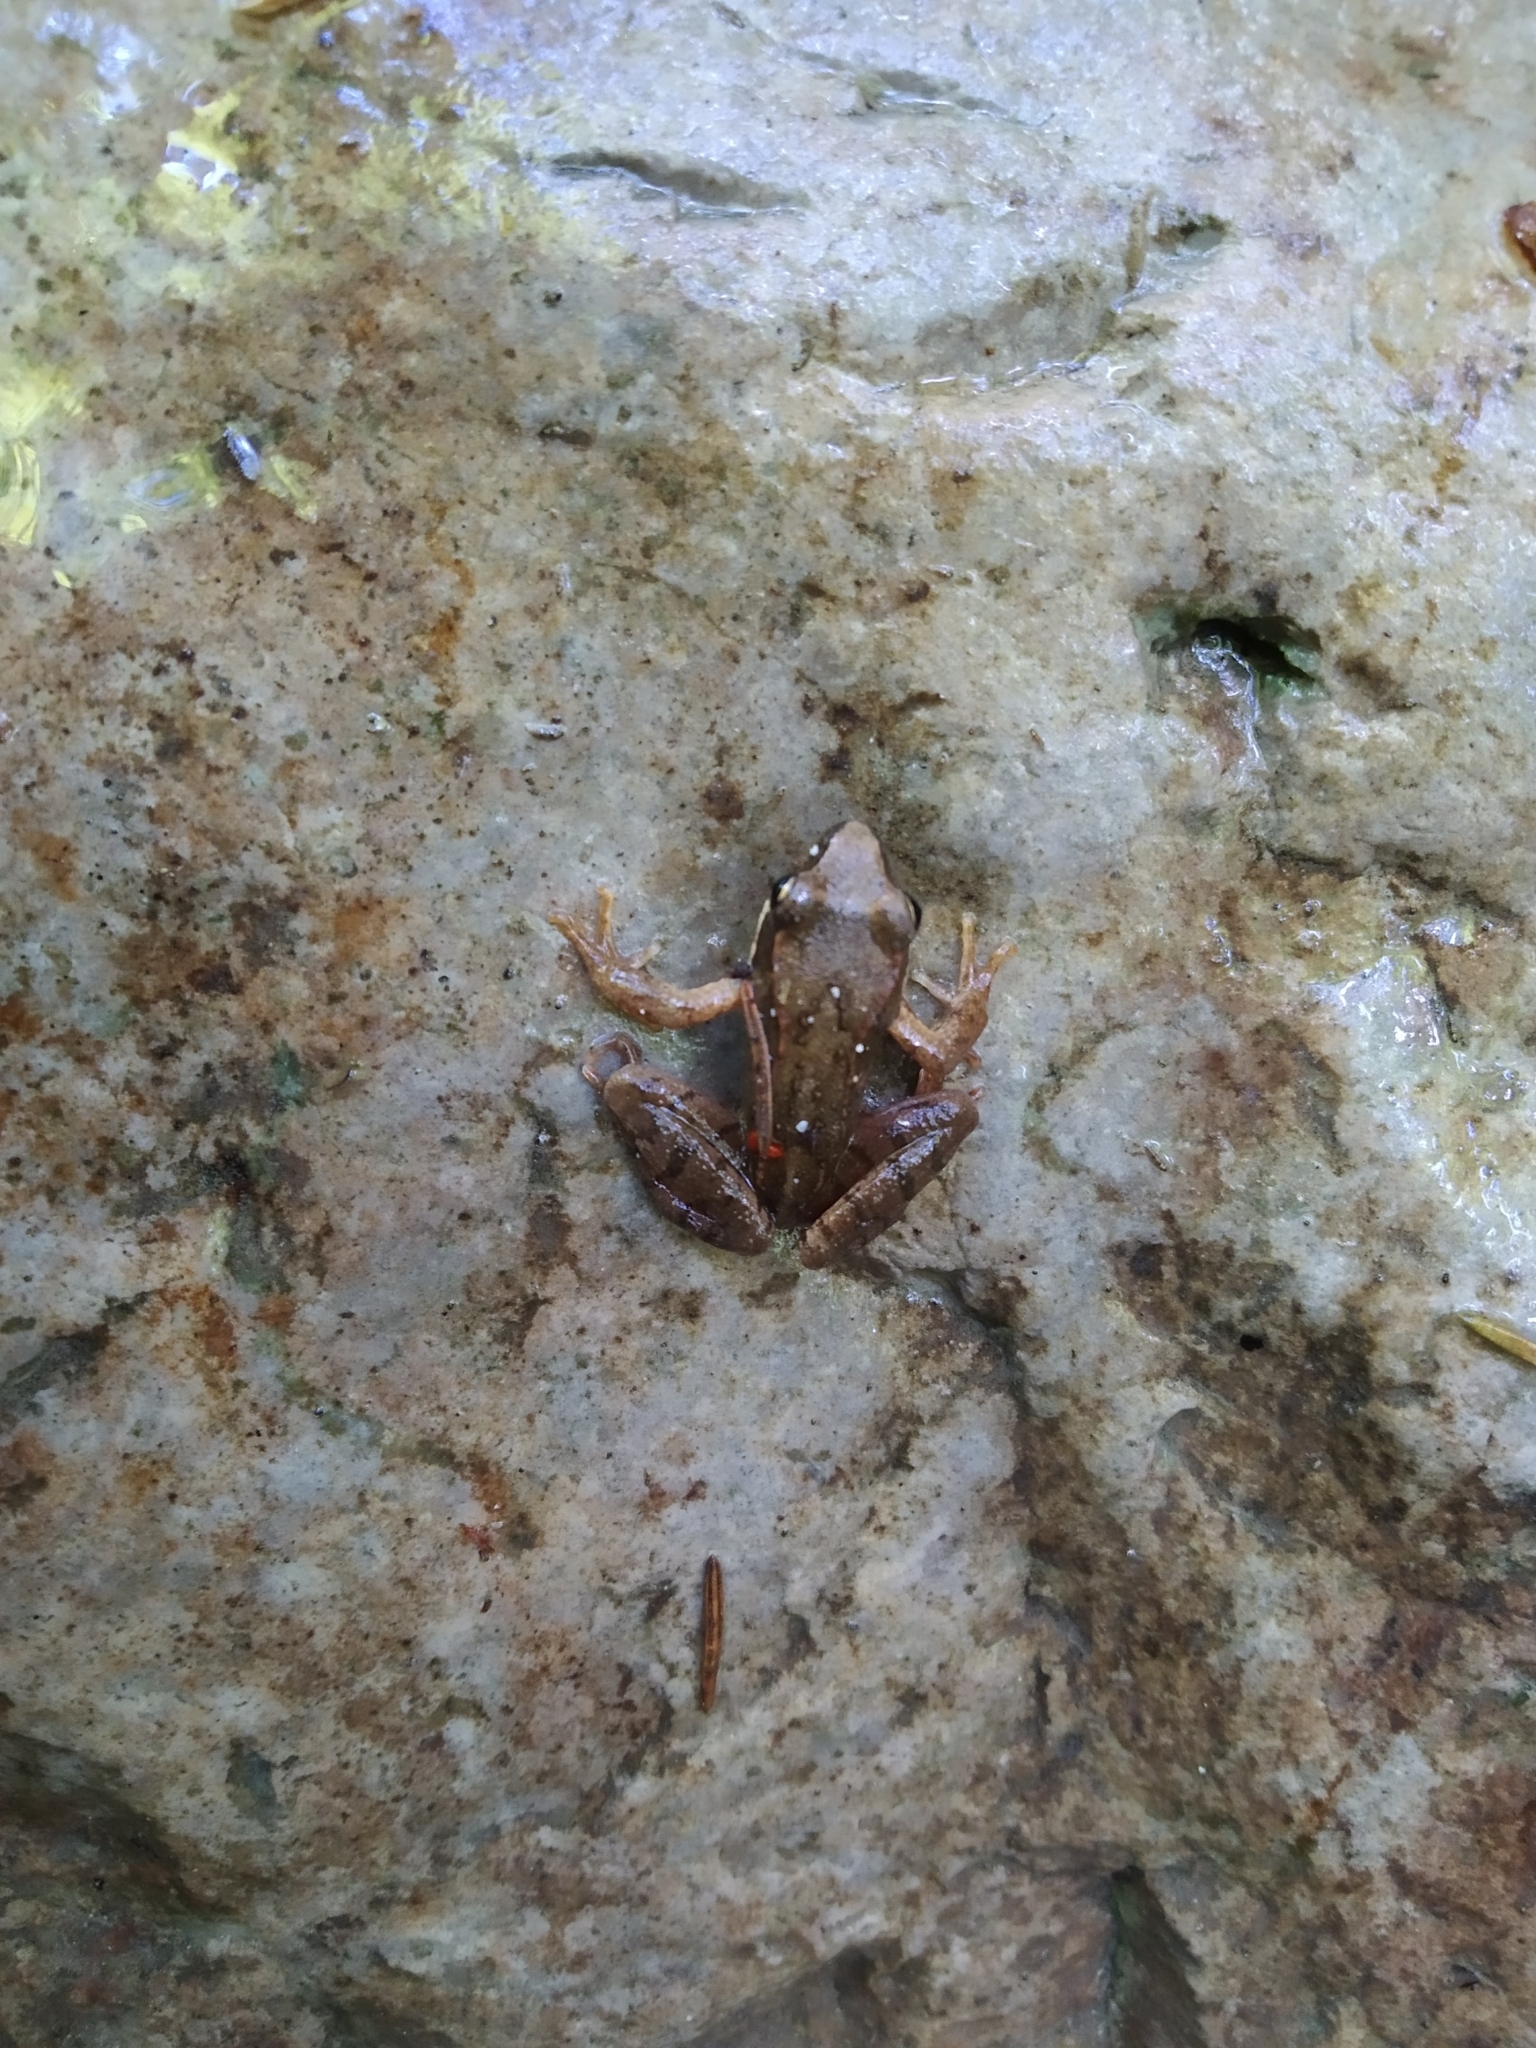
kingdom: Animalia
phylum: Chordata
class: Amphibia
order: Anura
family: Ranidae
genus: Rana
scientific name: Rana temporaria
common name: Common frog
